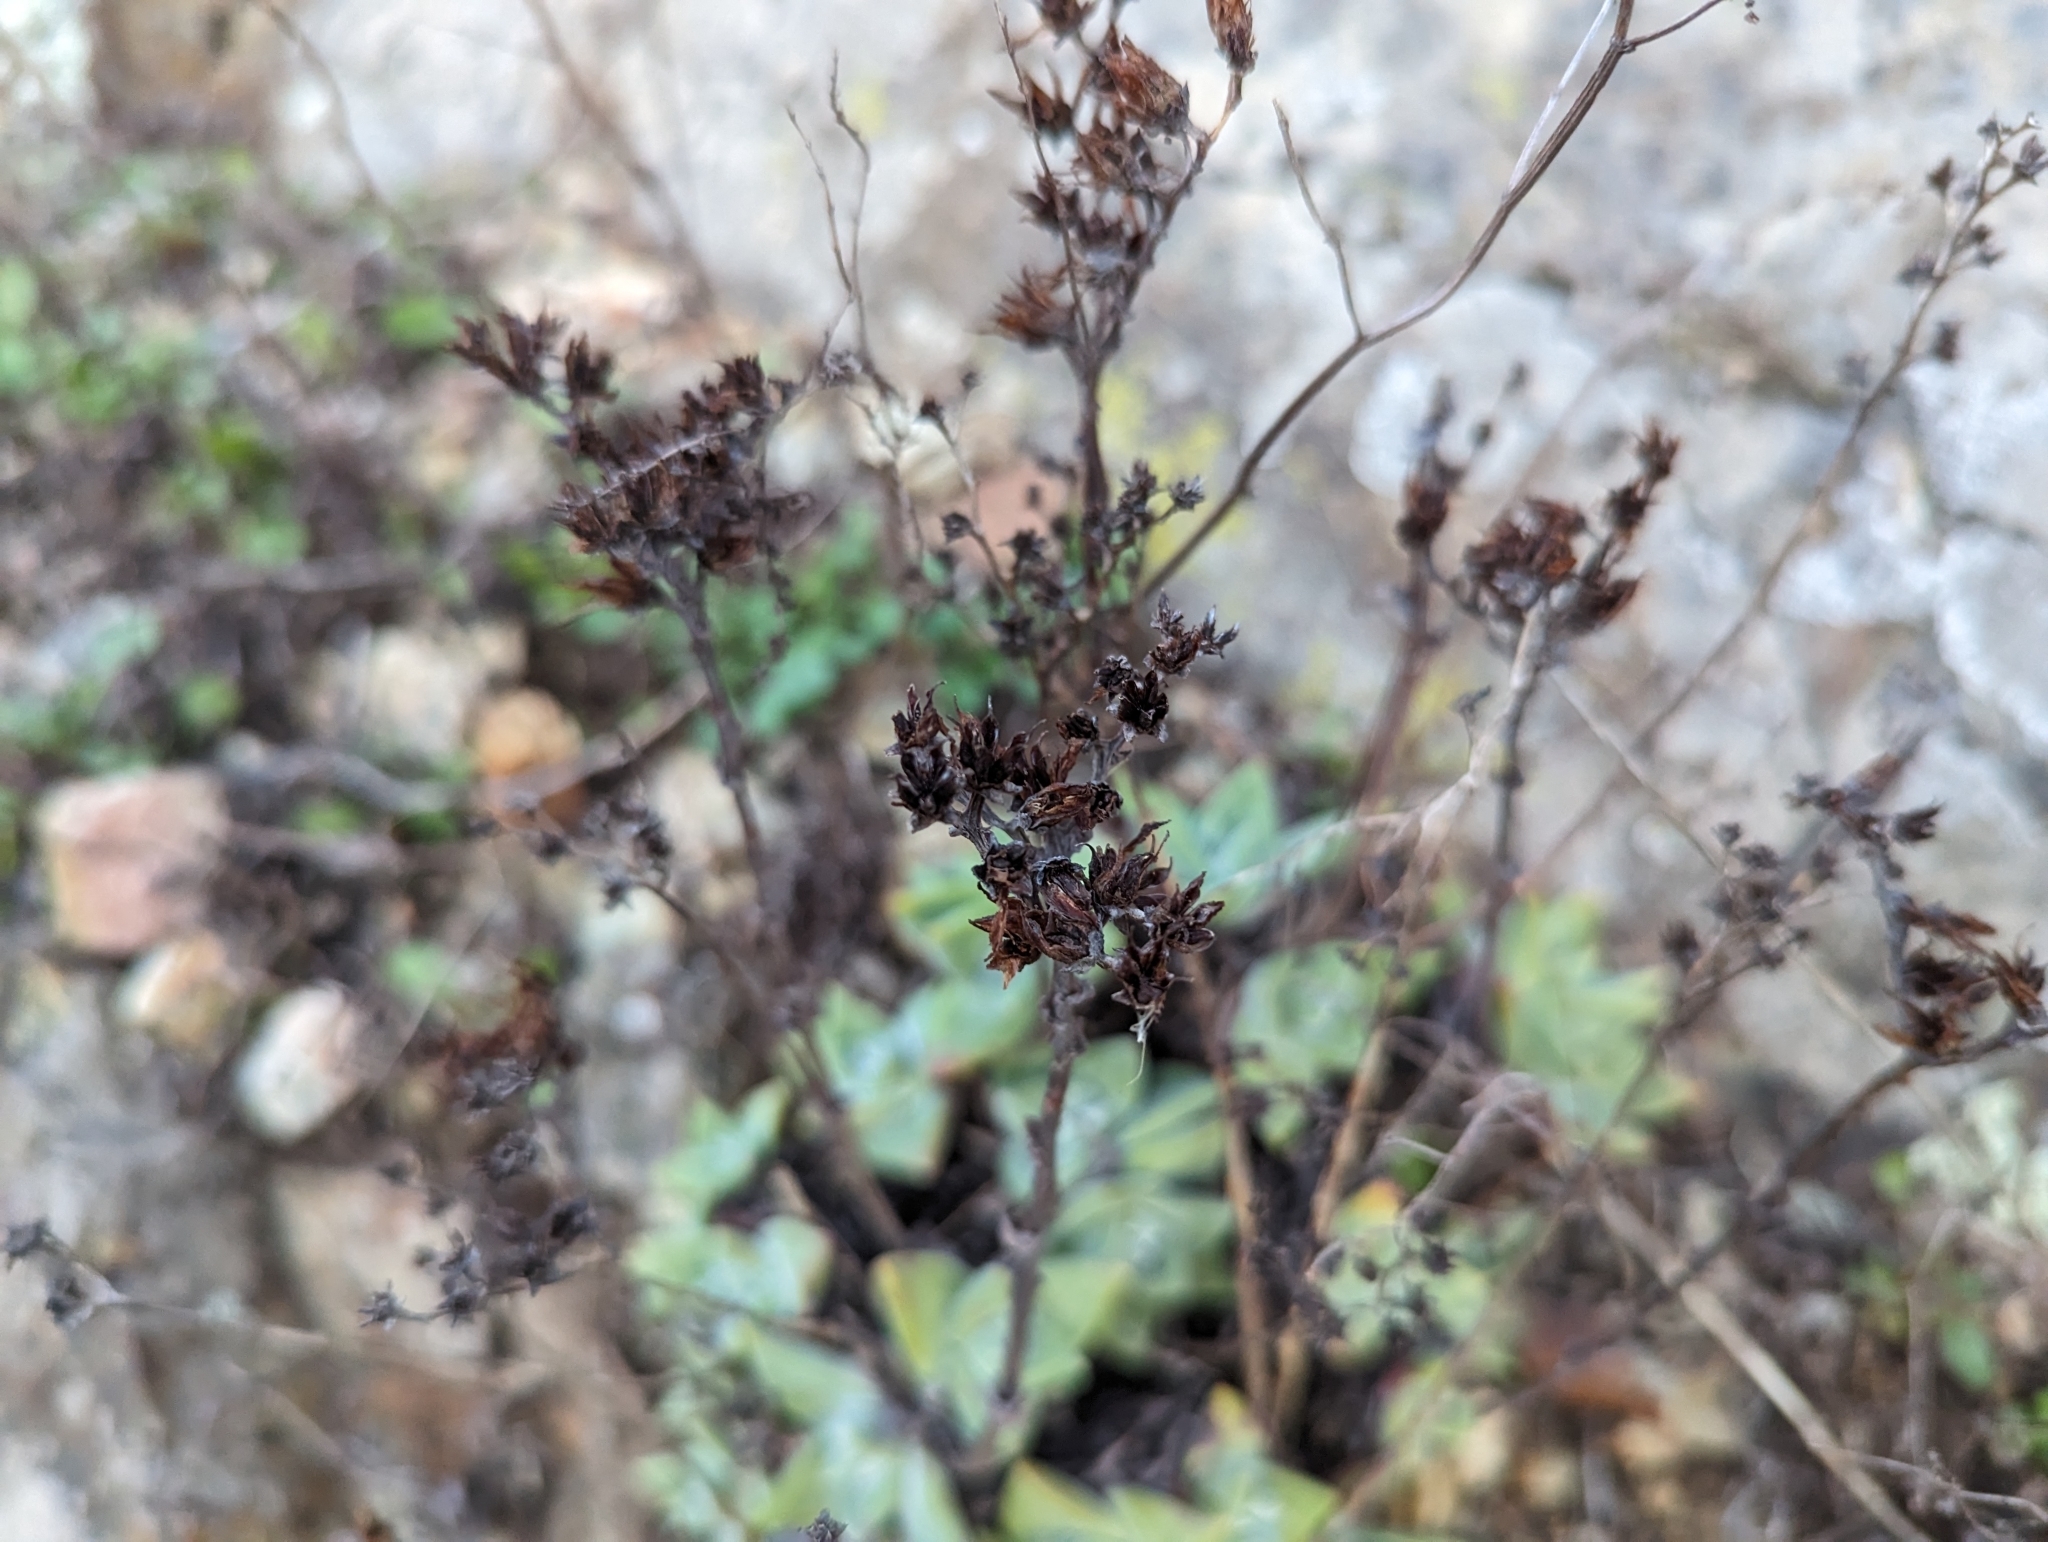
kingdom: Plantae
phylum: Tracheophyta
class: Magnoliopsida
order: Saxifragales
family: Crassulaceae
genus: Dudleya
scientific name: Dudleya farinosa
